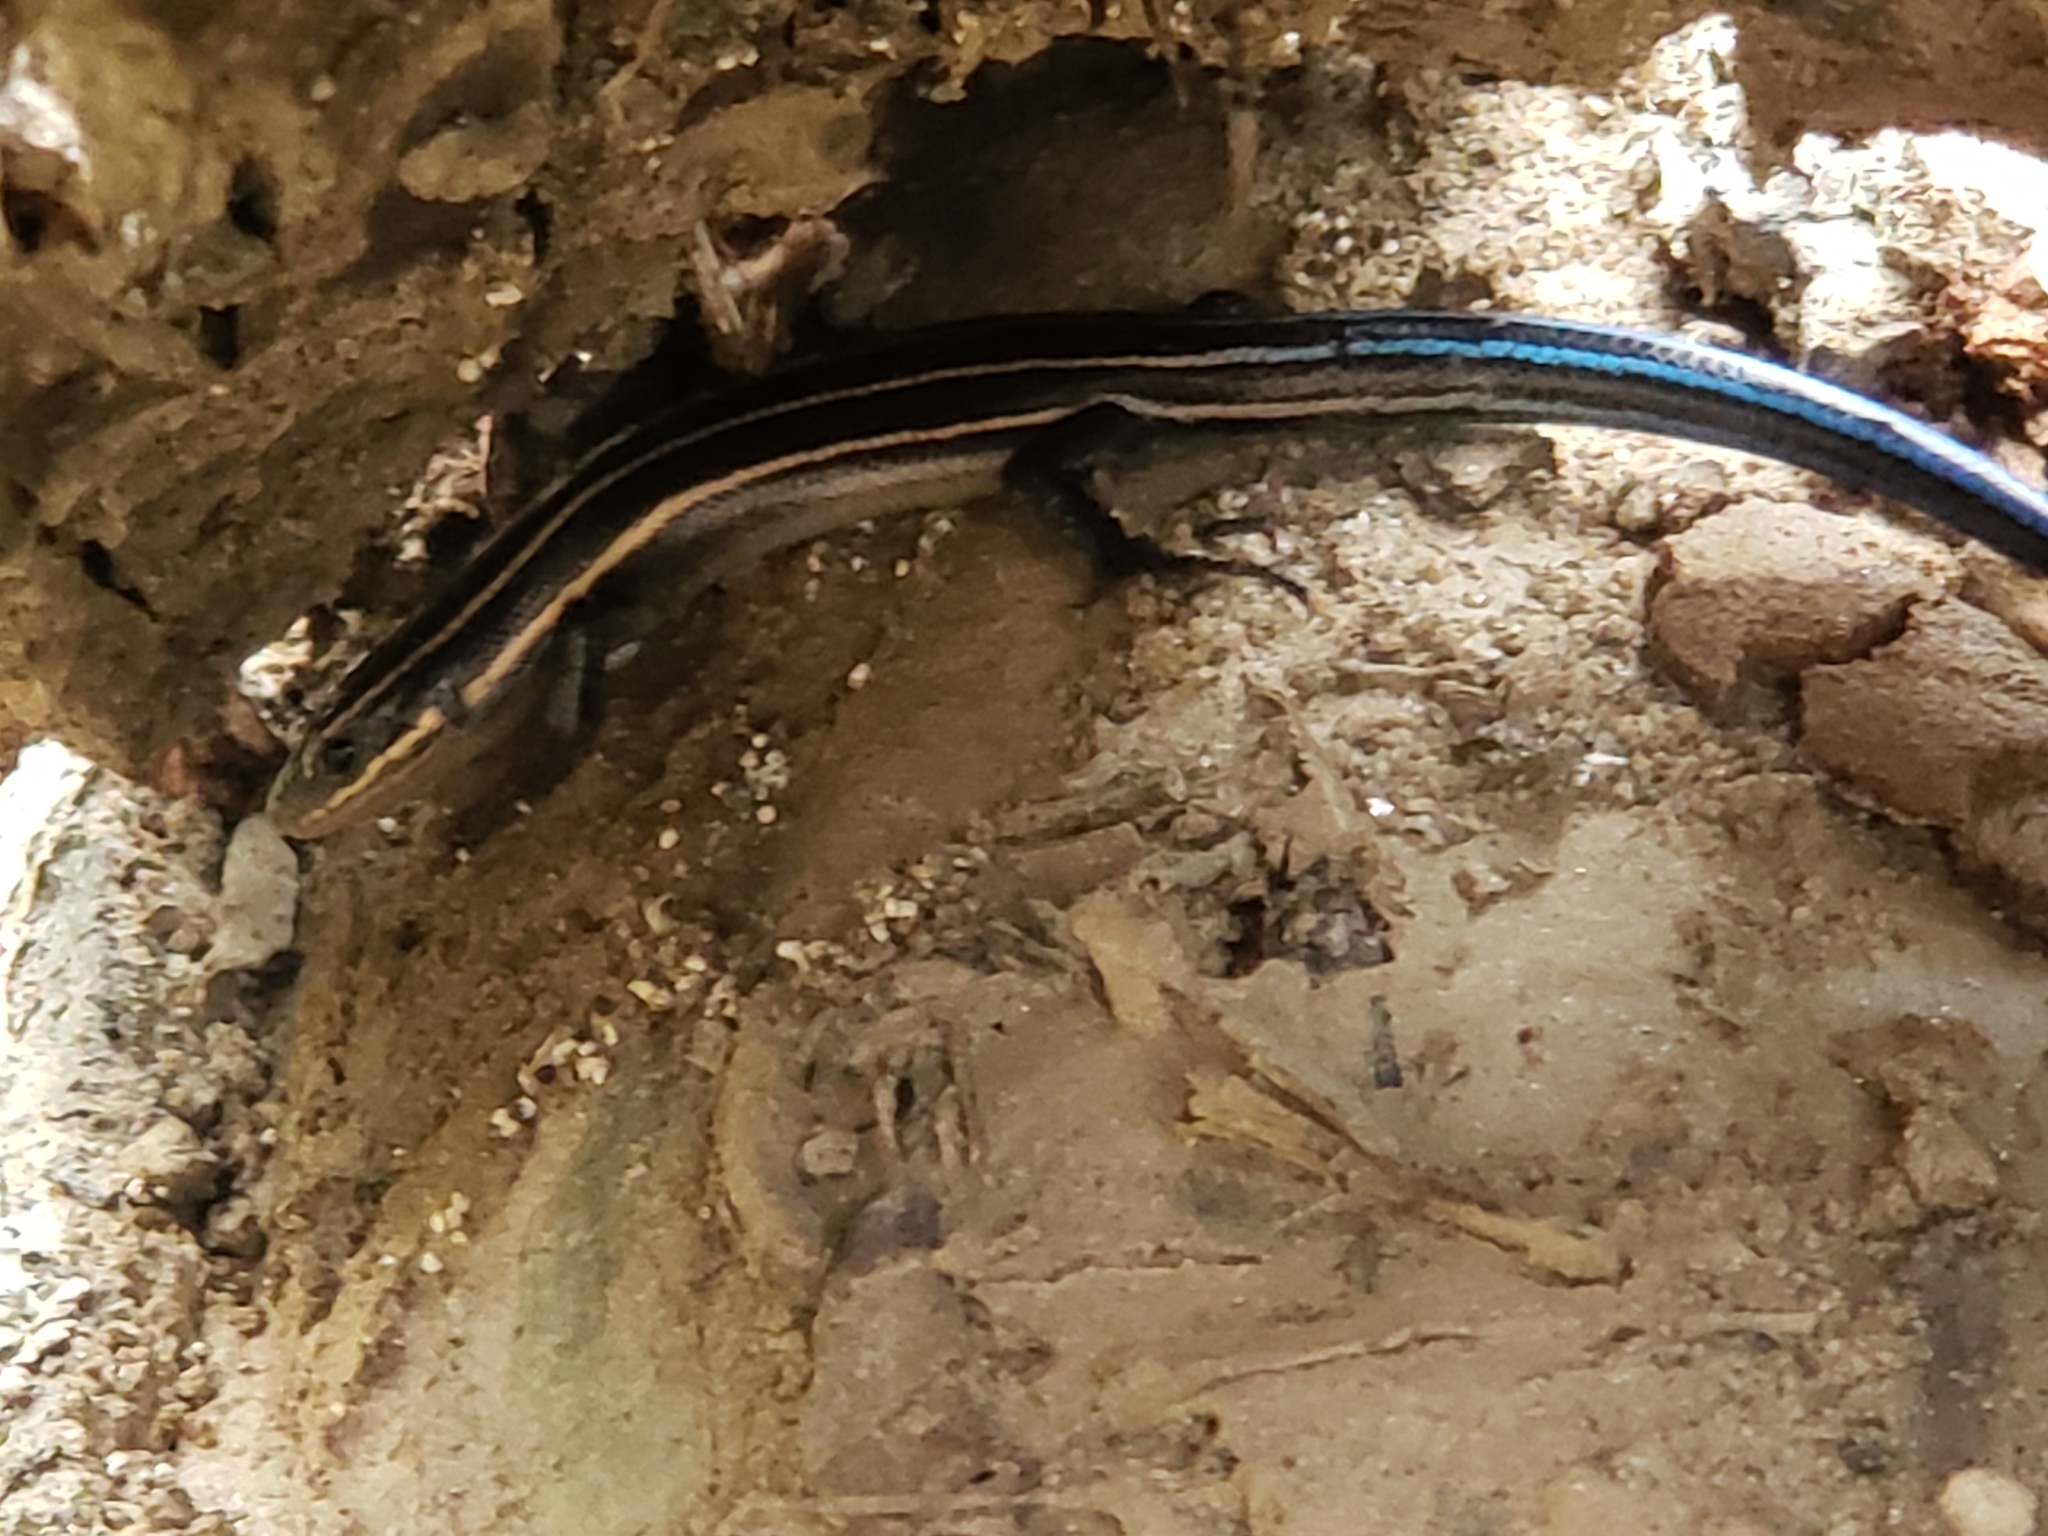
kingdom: Animalia
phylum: Chordata
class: Squamata
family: Scincidae
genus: Plestiodon
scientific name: Plestiodon fasciatus
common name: Five-lined skink
